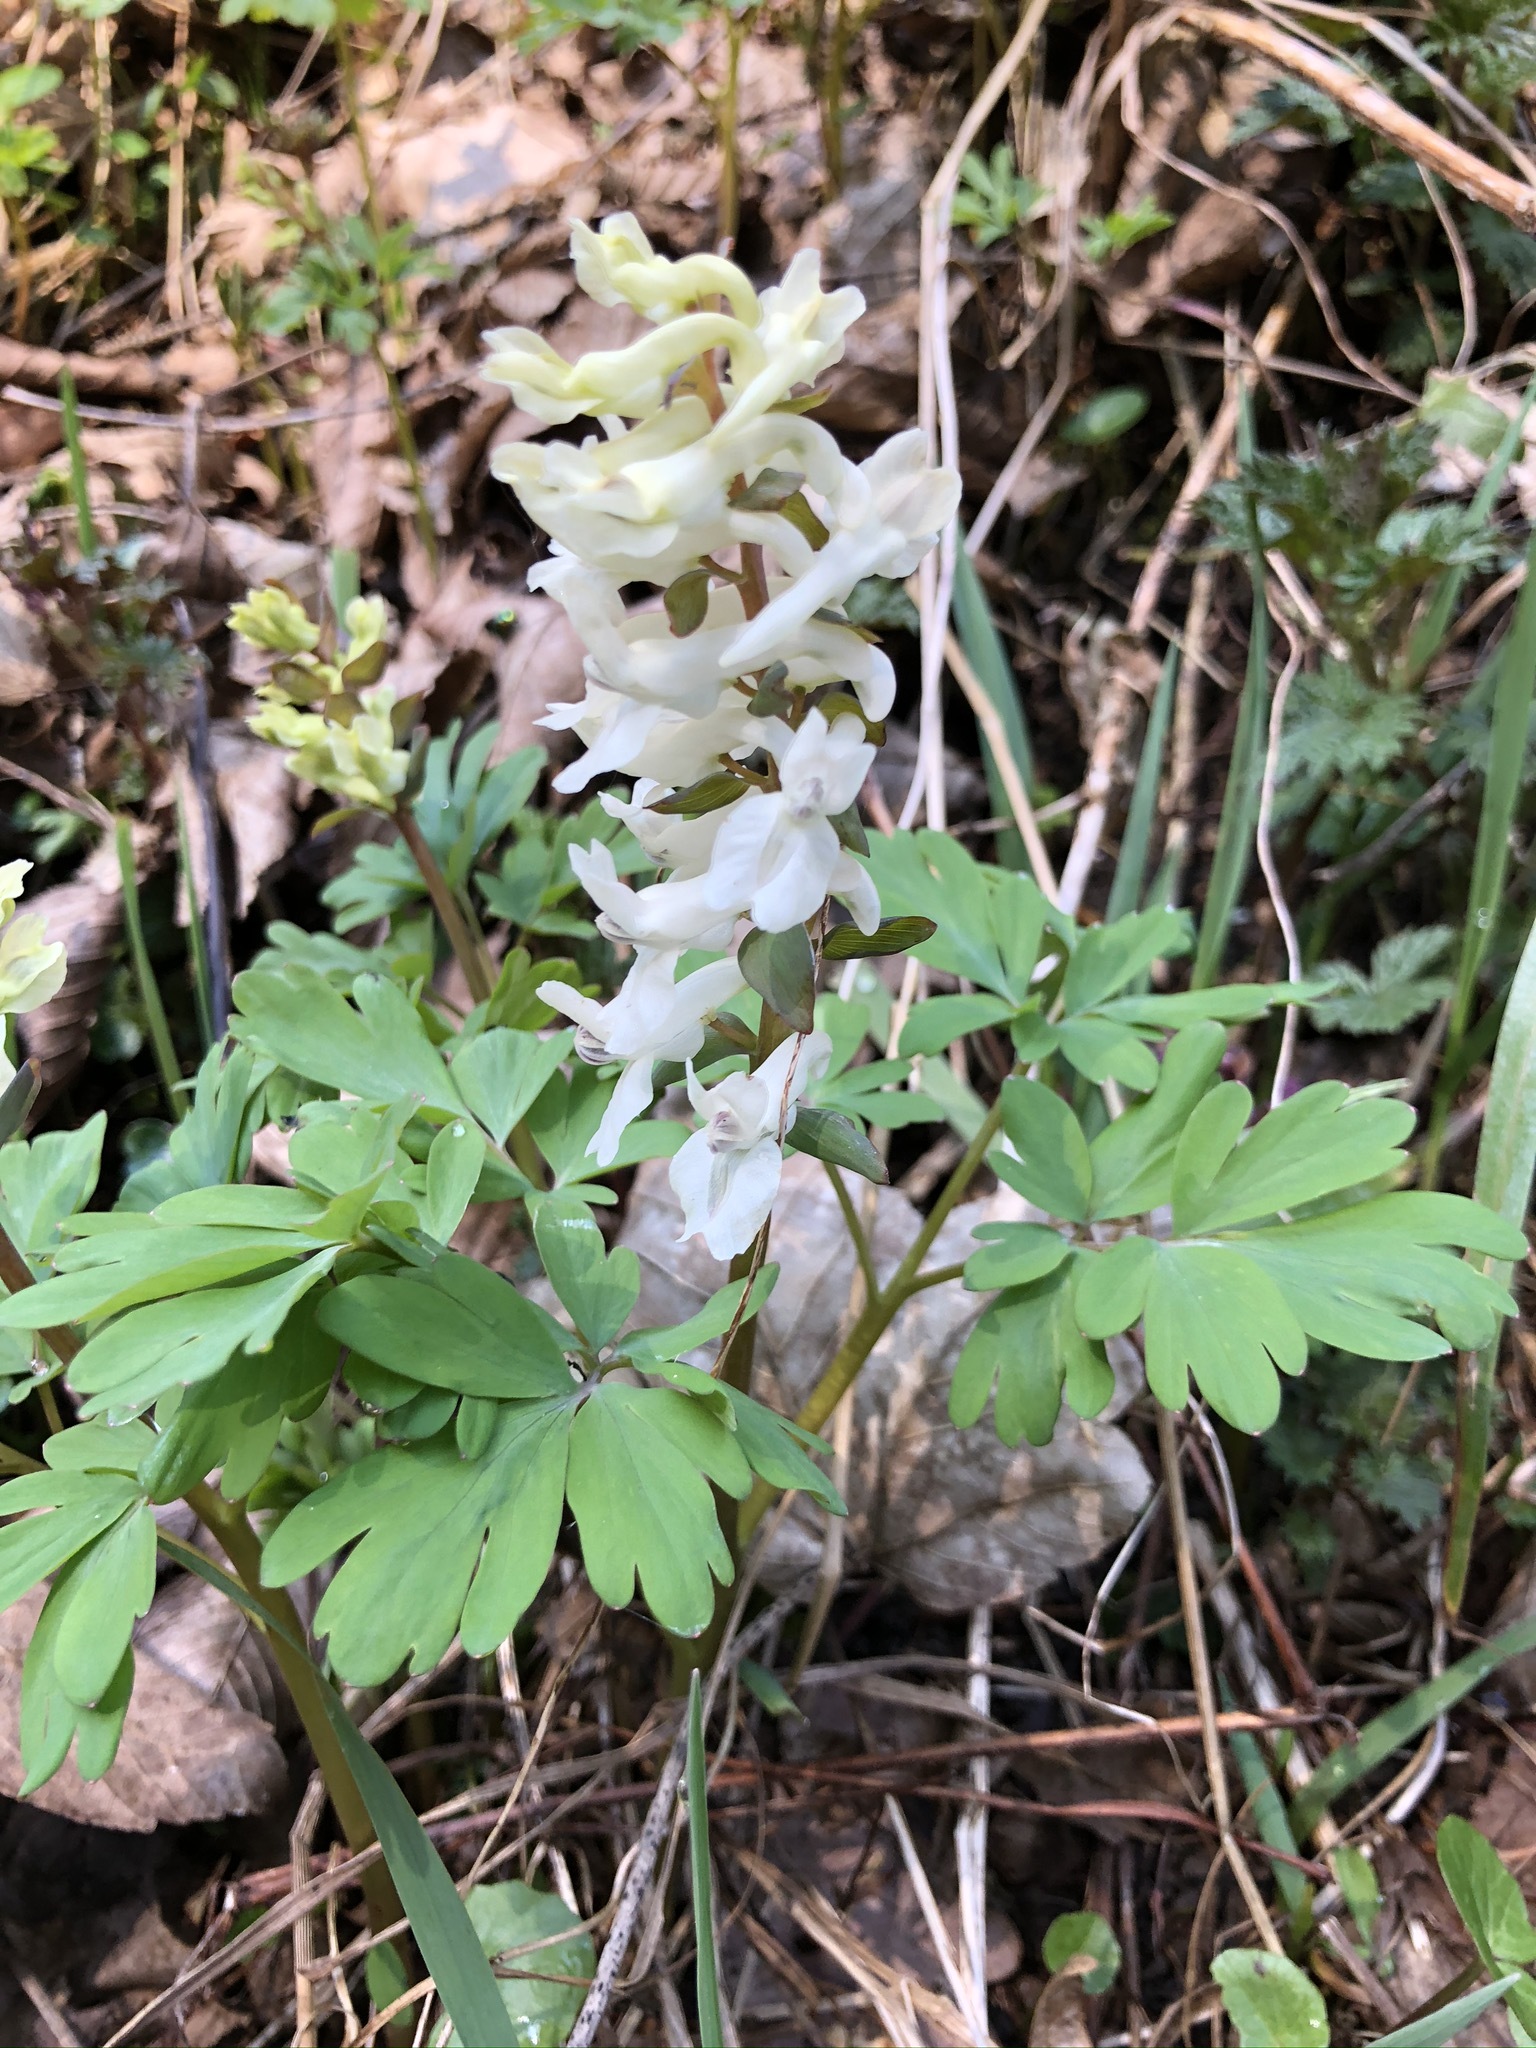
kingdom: Plantae
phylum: Tracheophyta
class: Magnoliopsida
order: Ranunculales
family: Papaveraceae
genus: Corydalis
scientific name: Corydalis cava
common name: Hollowroot
